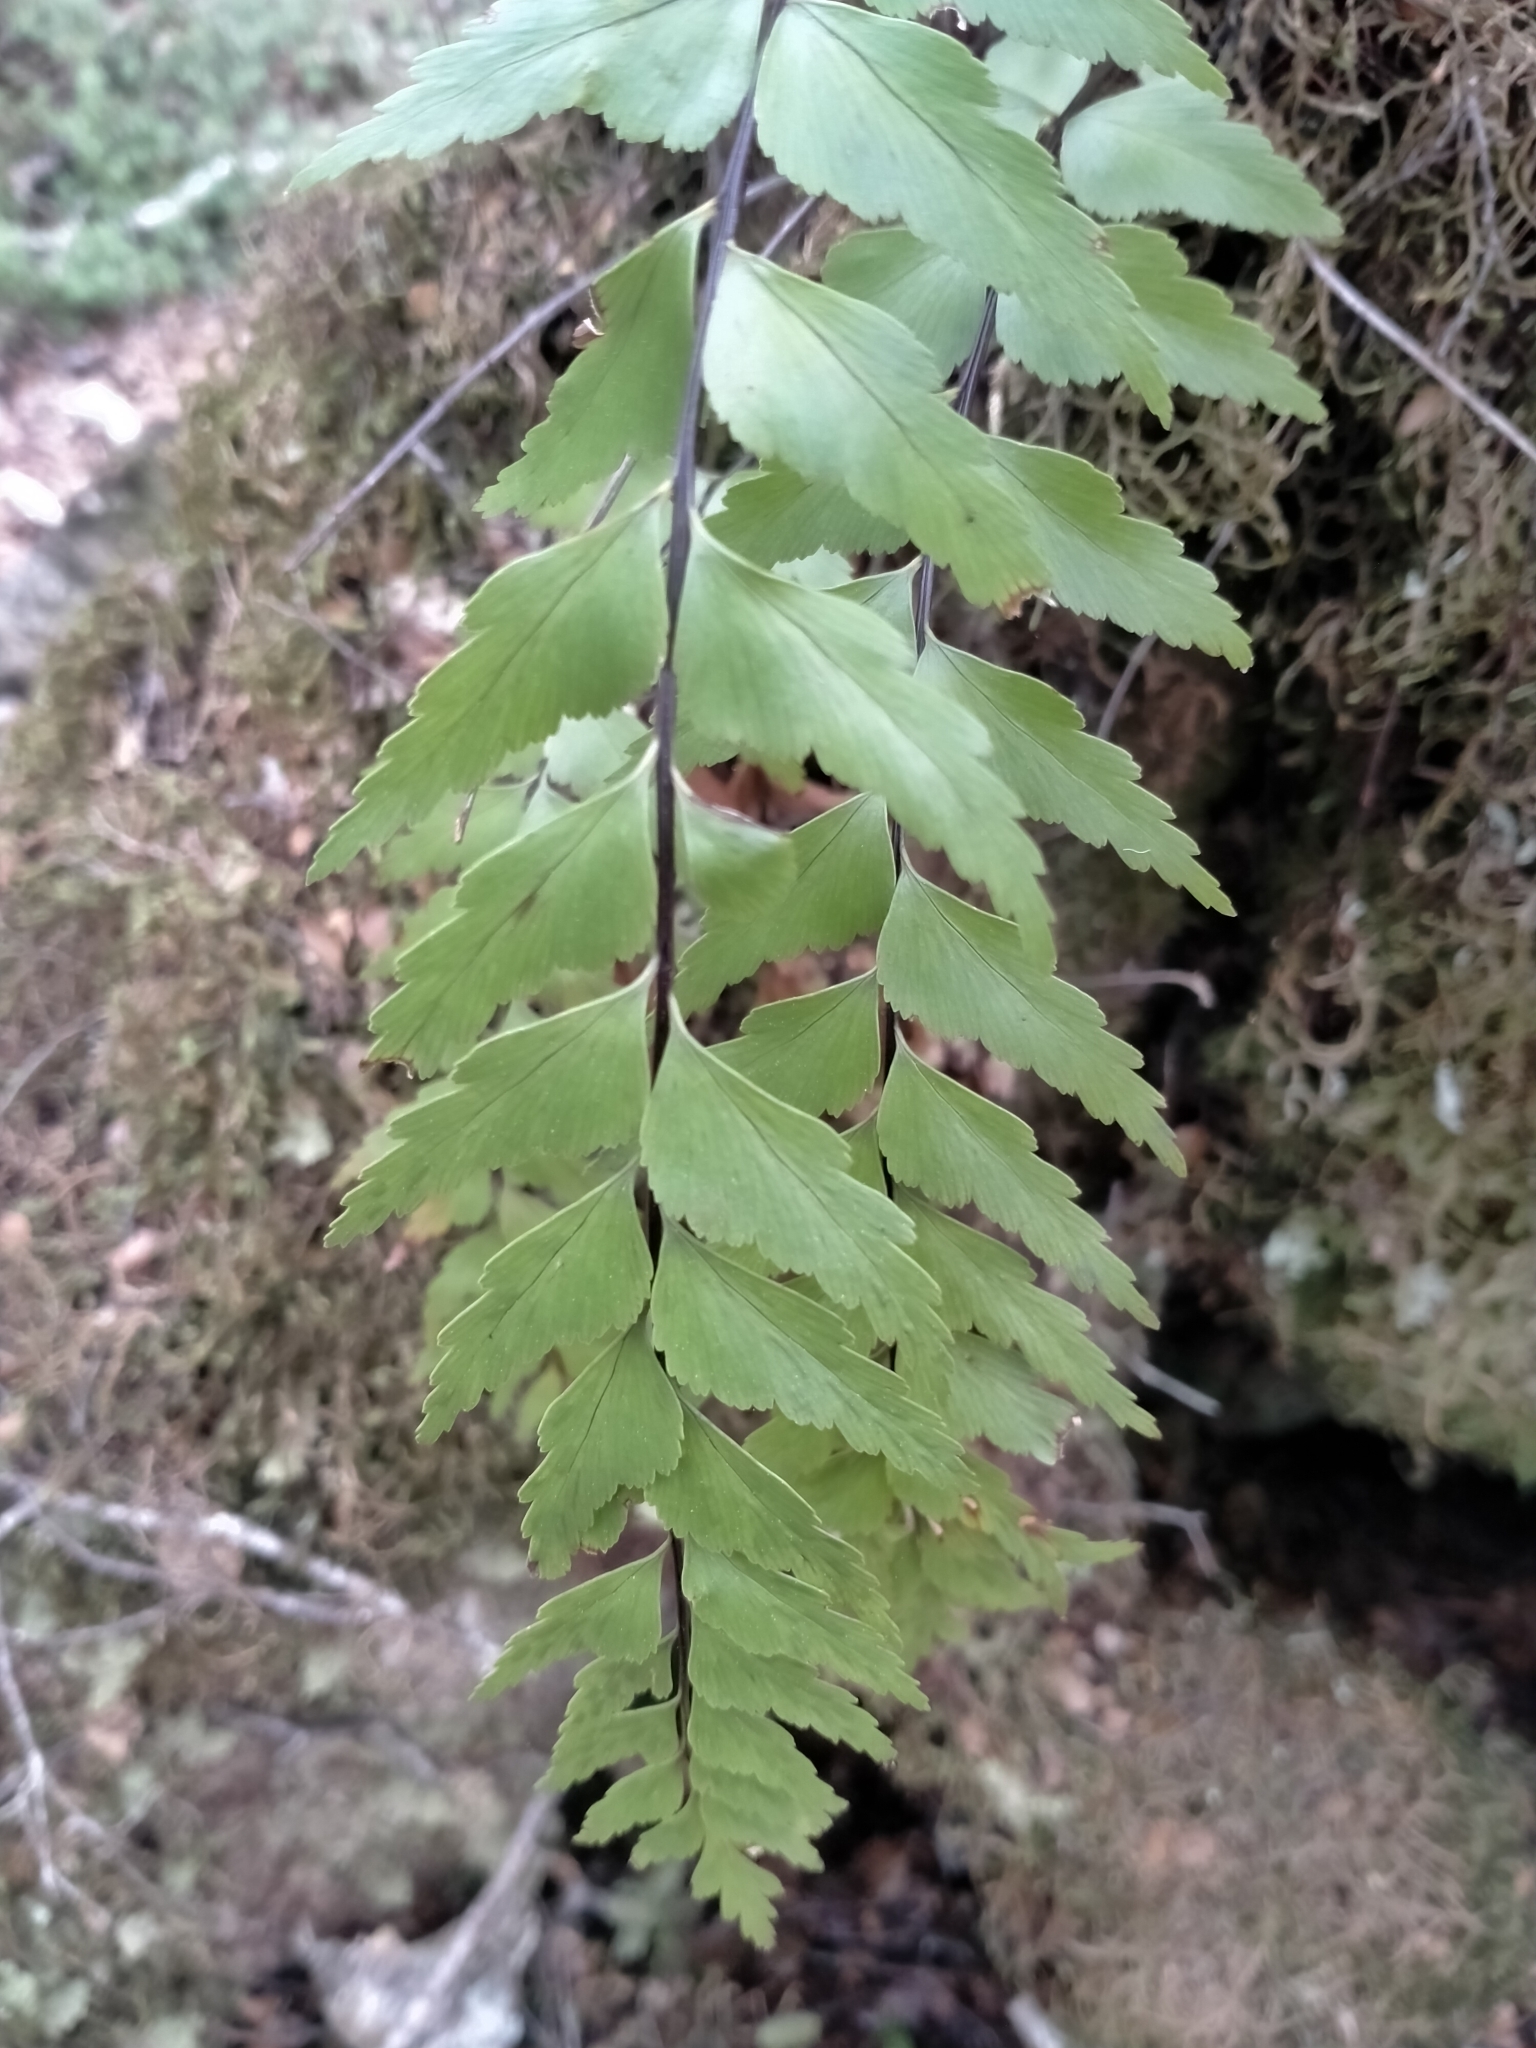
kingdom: Plantae
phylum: Tracheophyta
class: Polypodiopsida
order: Polypodiales
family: Aspleniaceae
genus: Asplenium
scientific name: Asplenium polyodon
